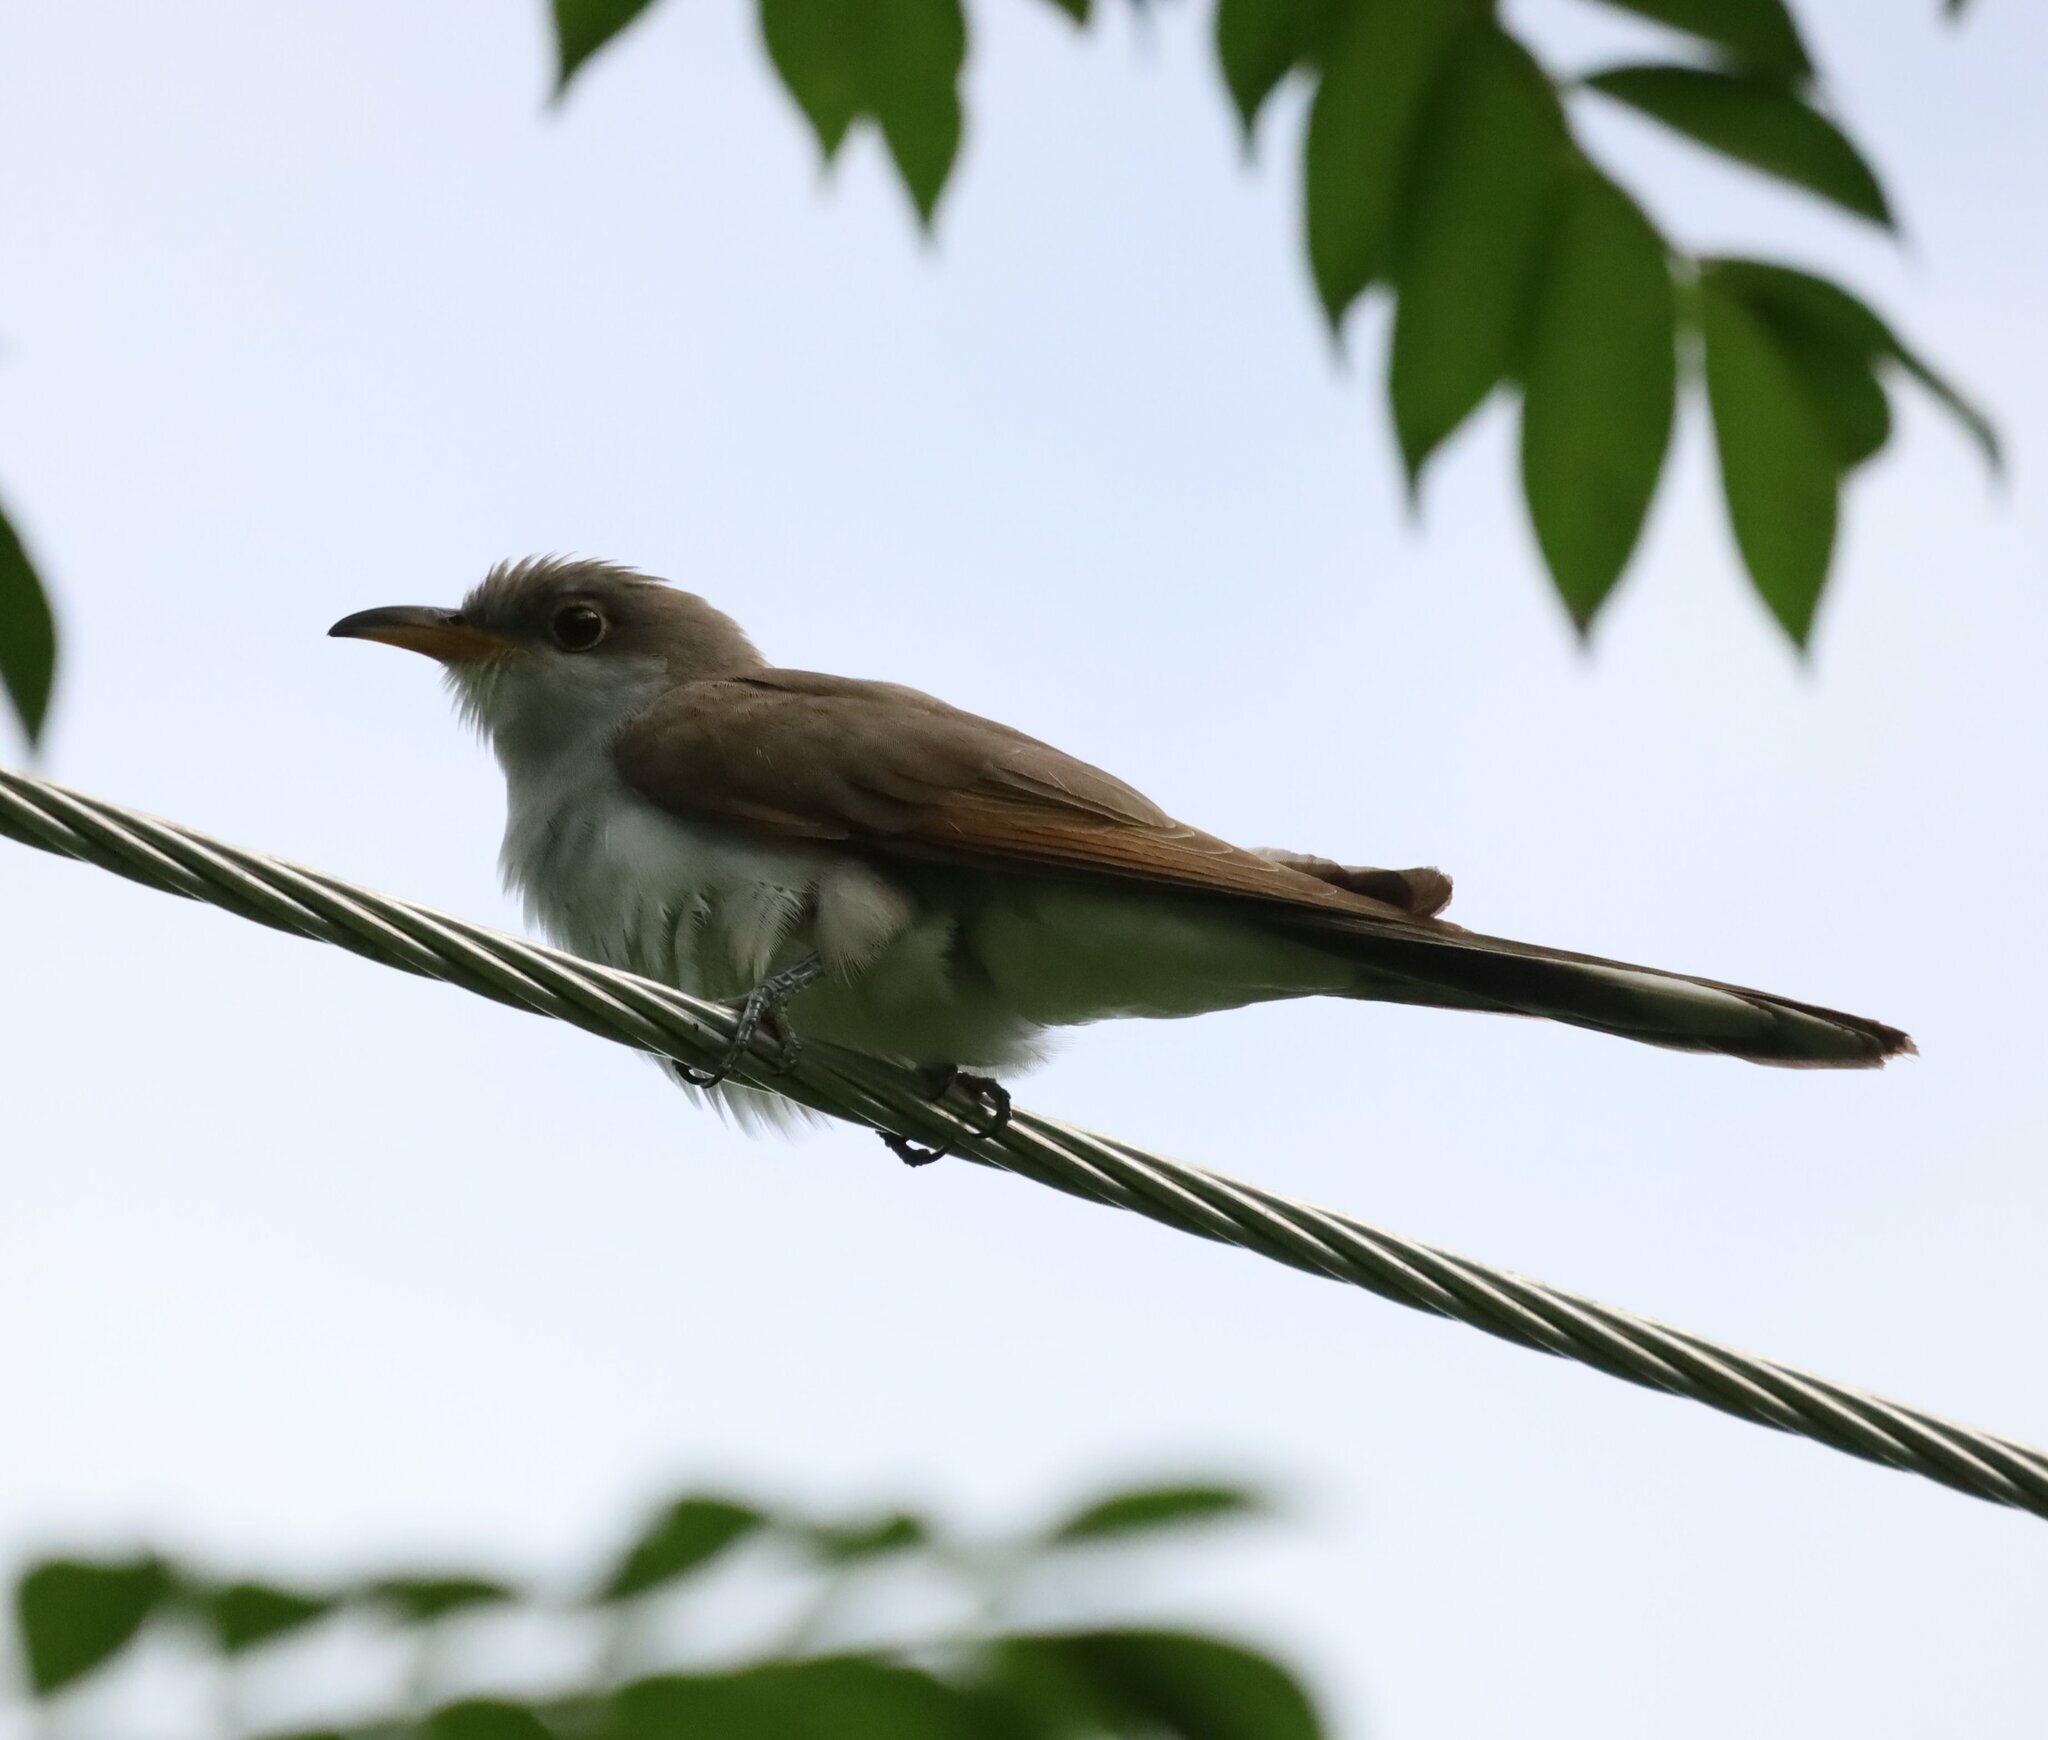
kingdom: Animalia
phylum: Chordata
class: Aves
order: Cuculiformes
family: Cuculidae
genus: Coccyzus
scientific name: Coccyzus americanus
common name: Yellow-billed cuckoo
